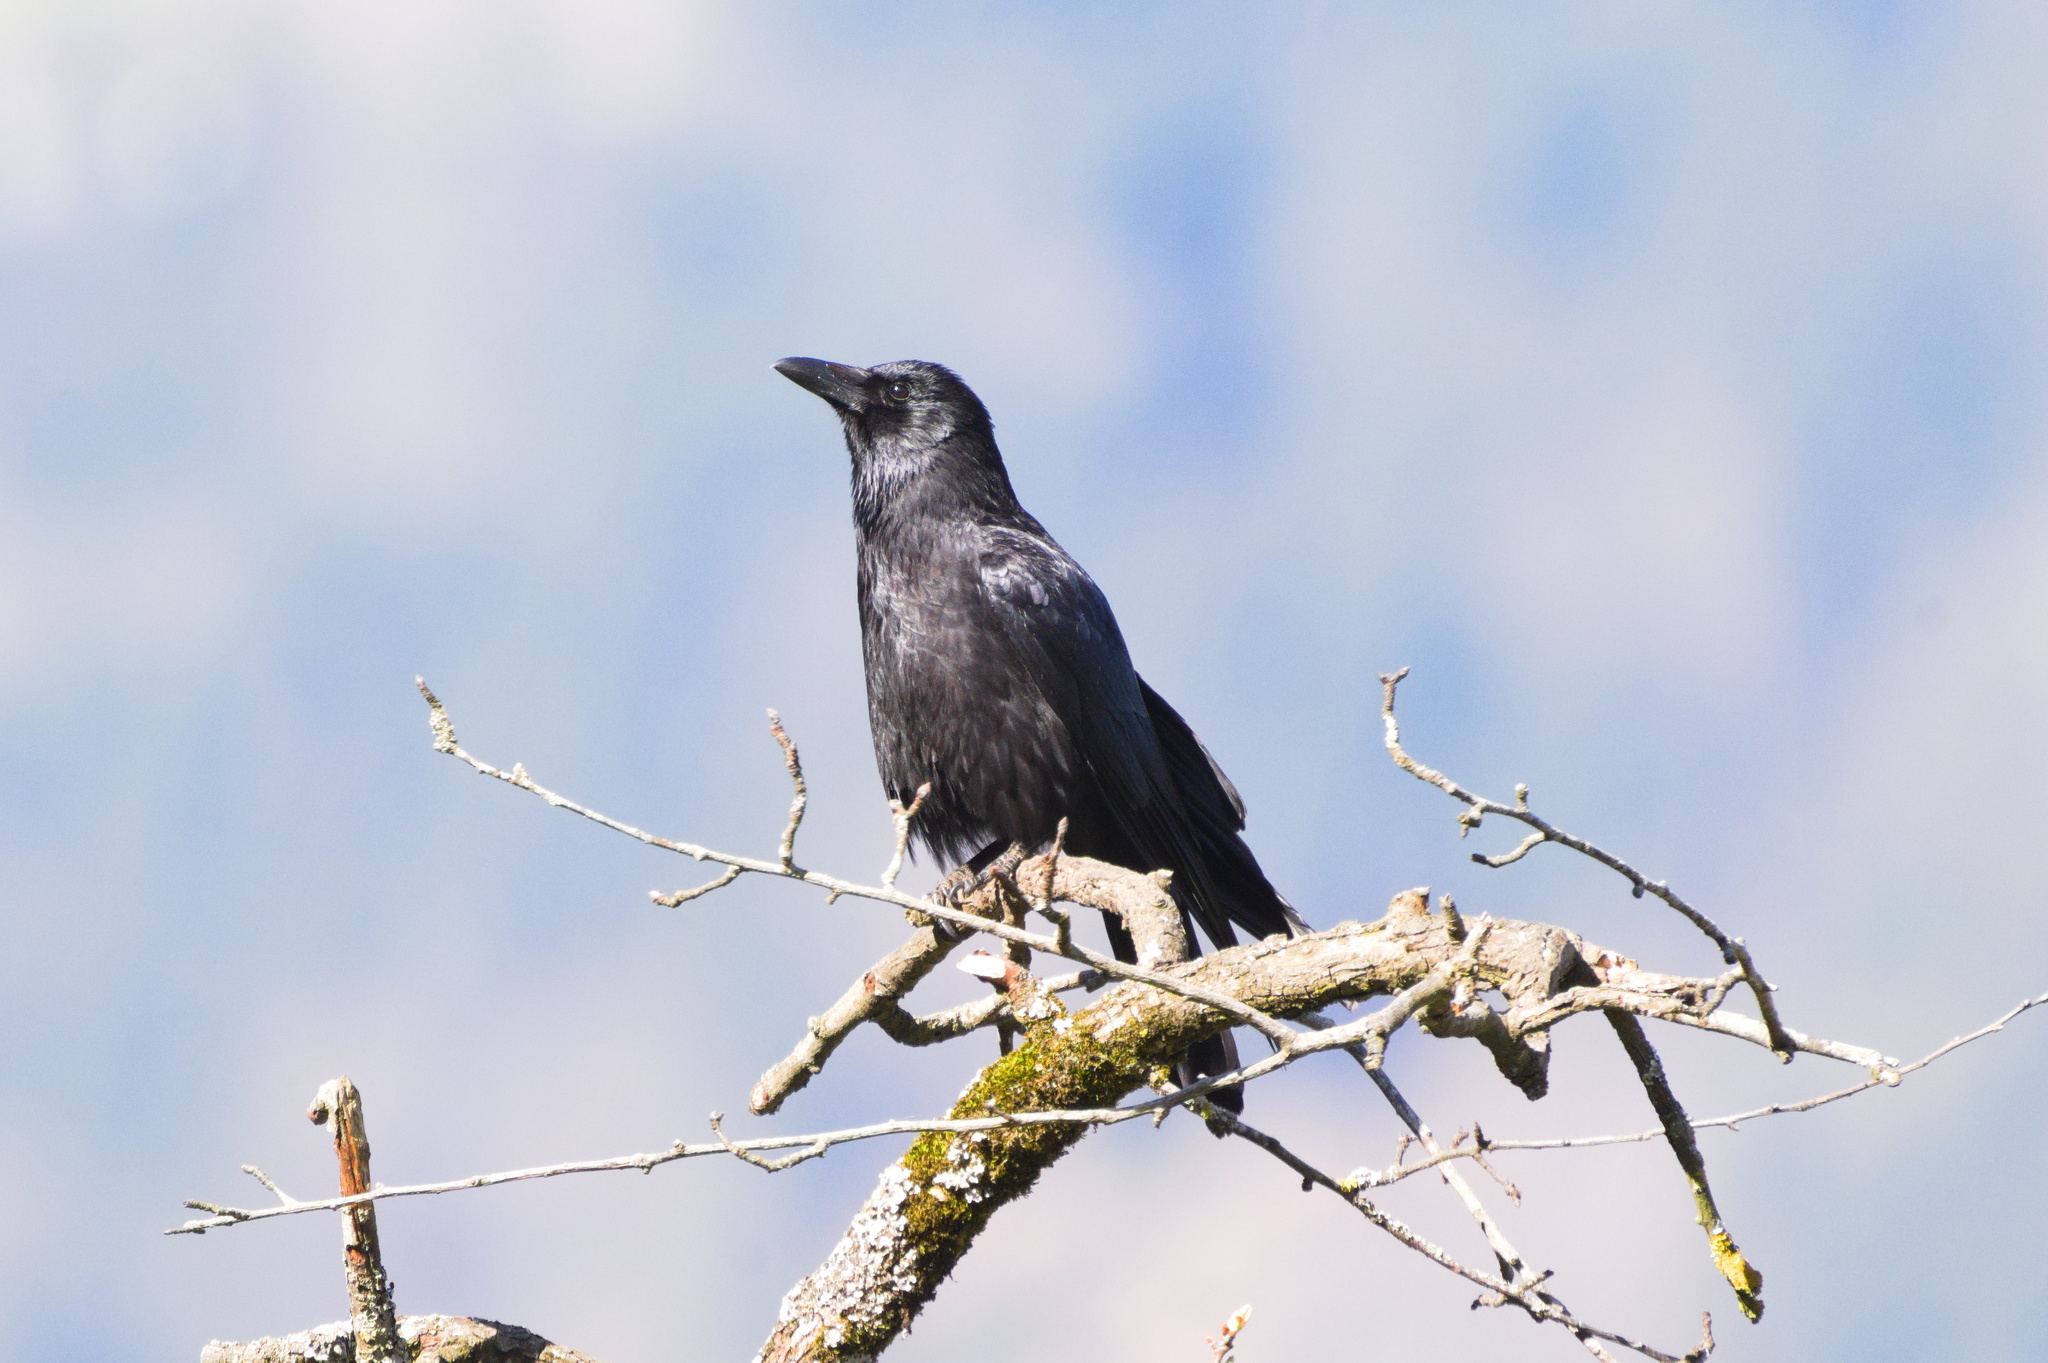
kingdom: Animalia
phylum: Chordata
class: Aves
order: Passeriformes
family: Corvidae
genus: Corvus
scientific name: Corvus corone
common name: Carrion crow
